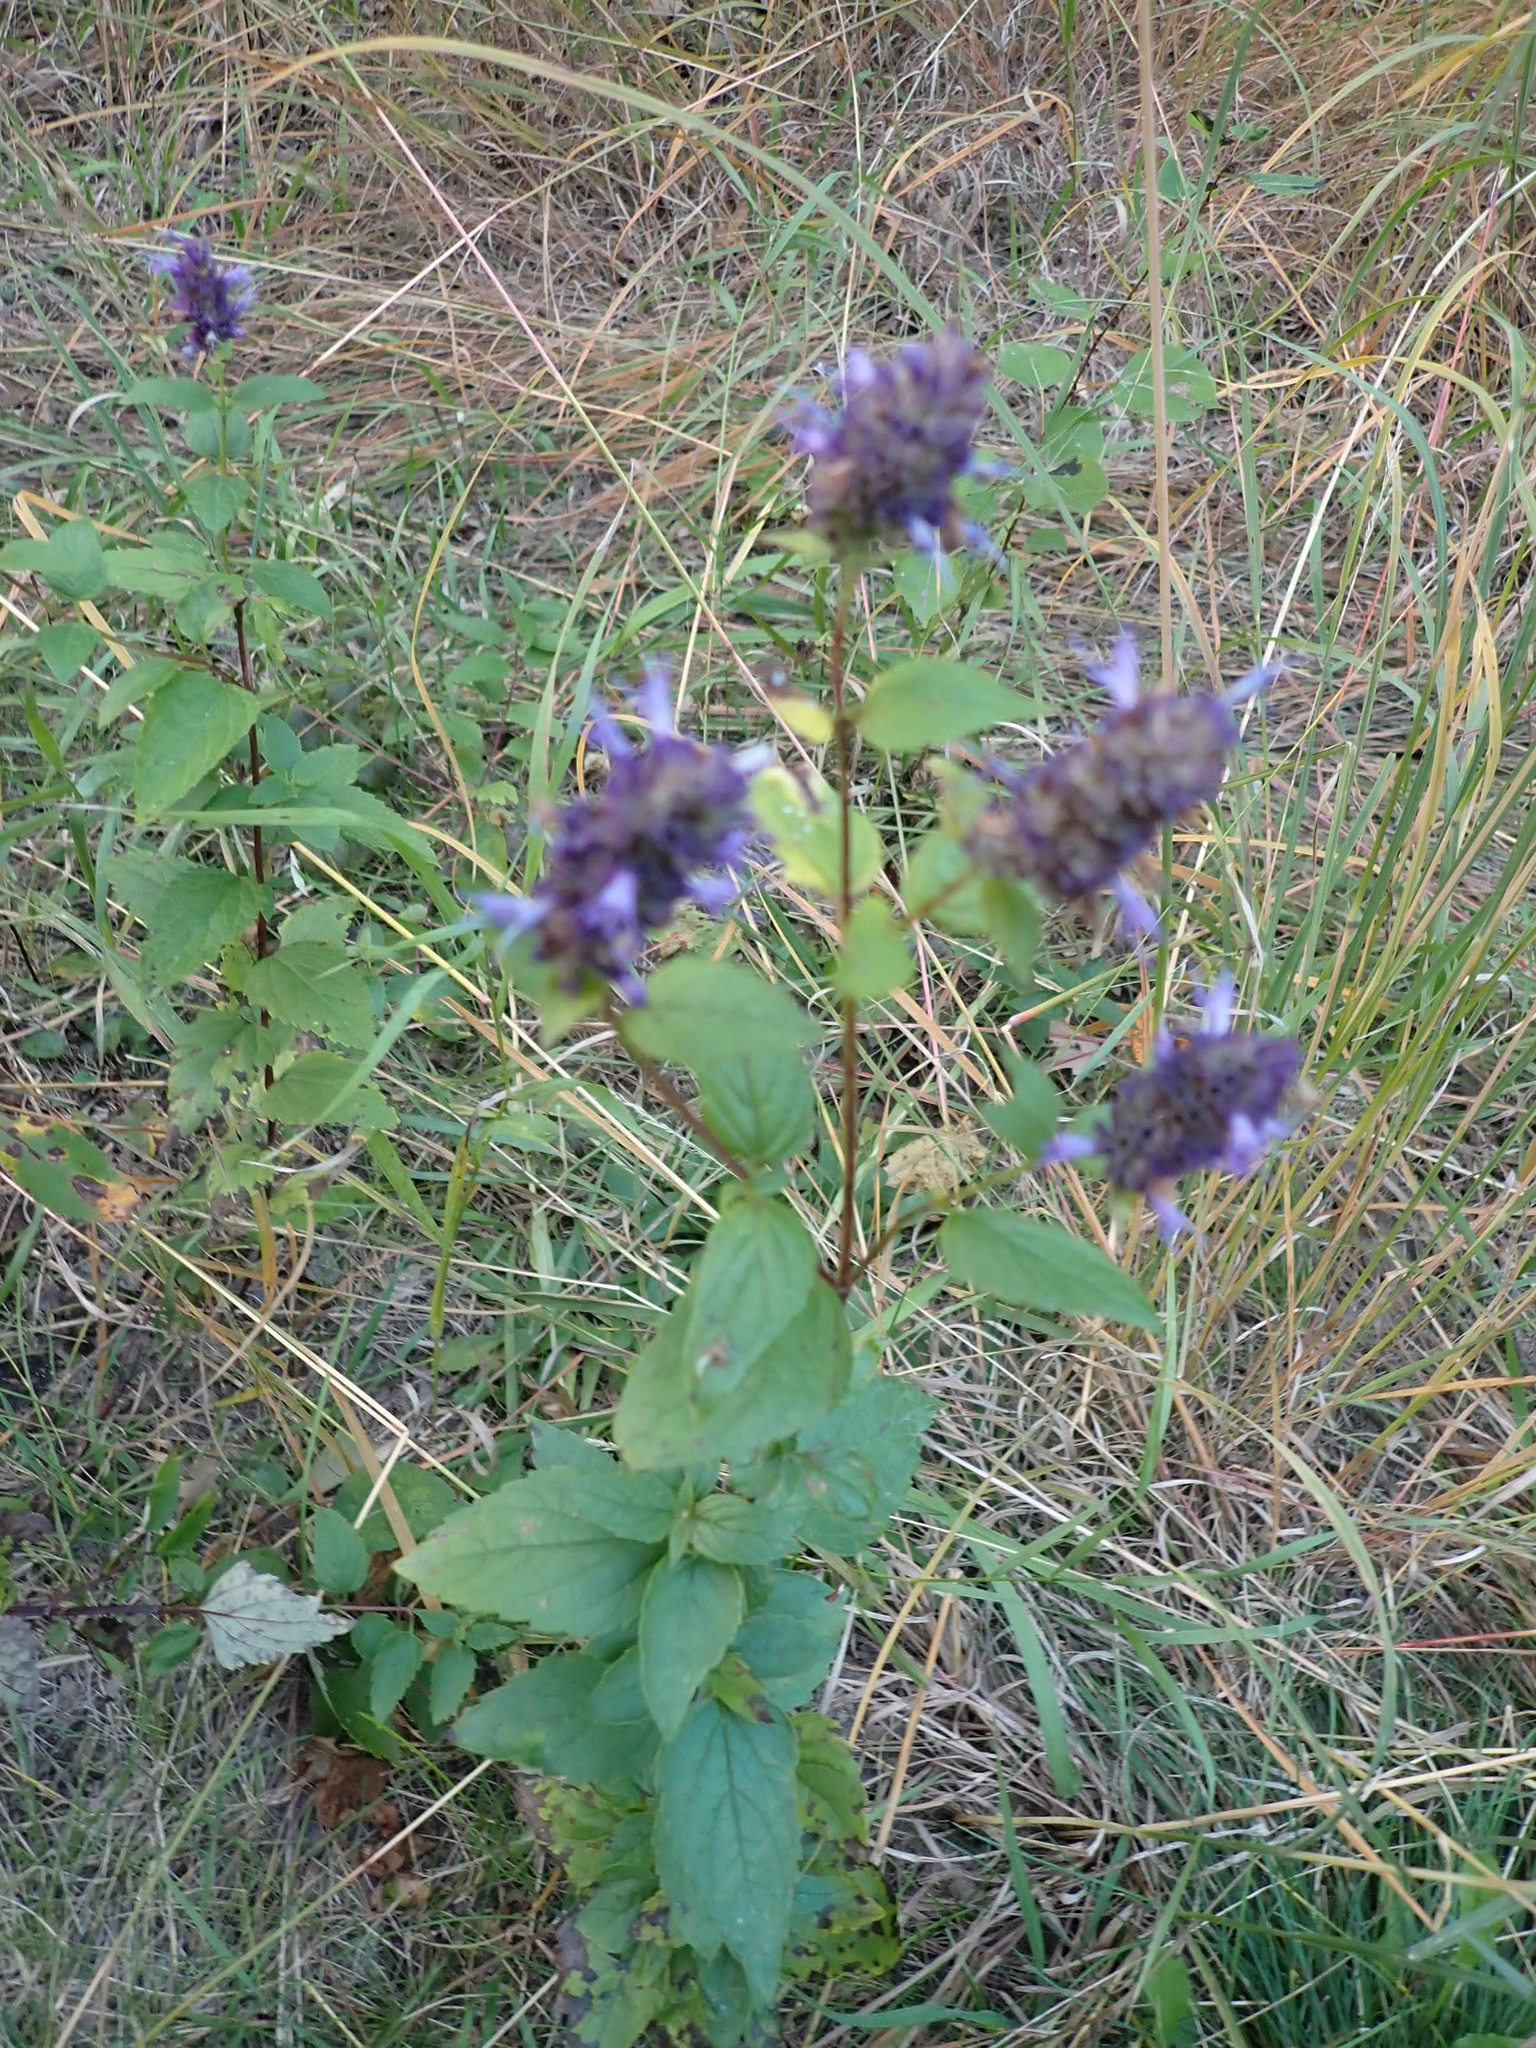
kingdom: Plantae
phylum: Tracheophyta
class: Magnoliopsida
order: Lamiales
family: Lamiaceae
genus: Agastache
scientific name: Agastache foeniculum
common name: Anise hyssop
